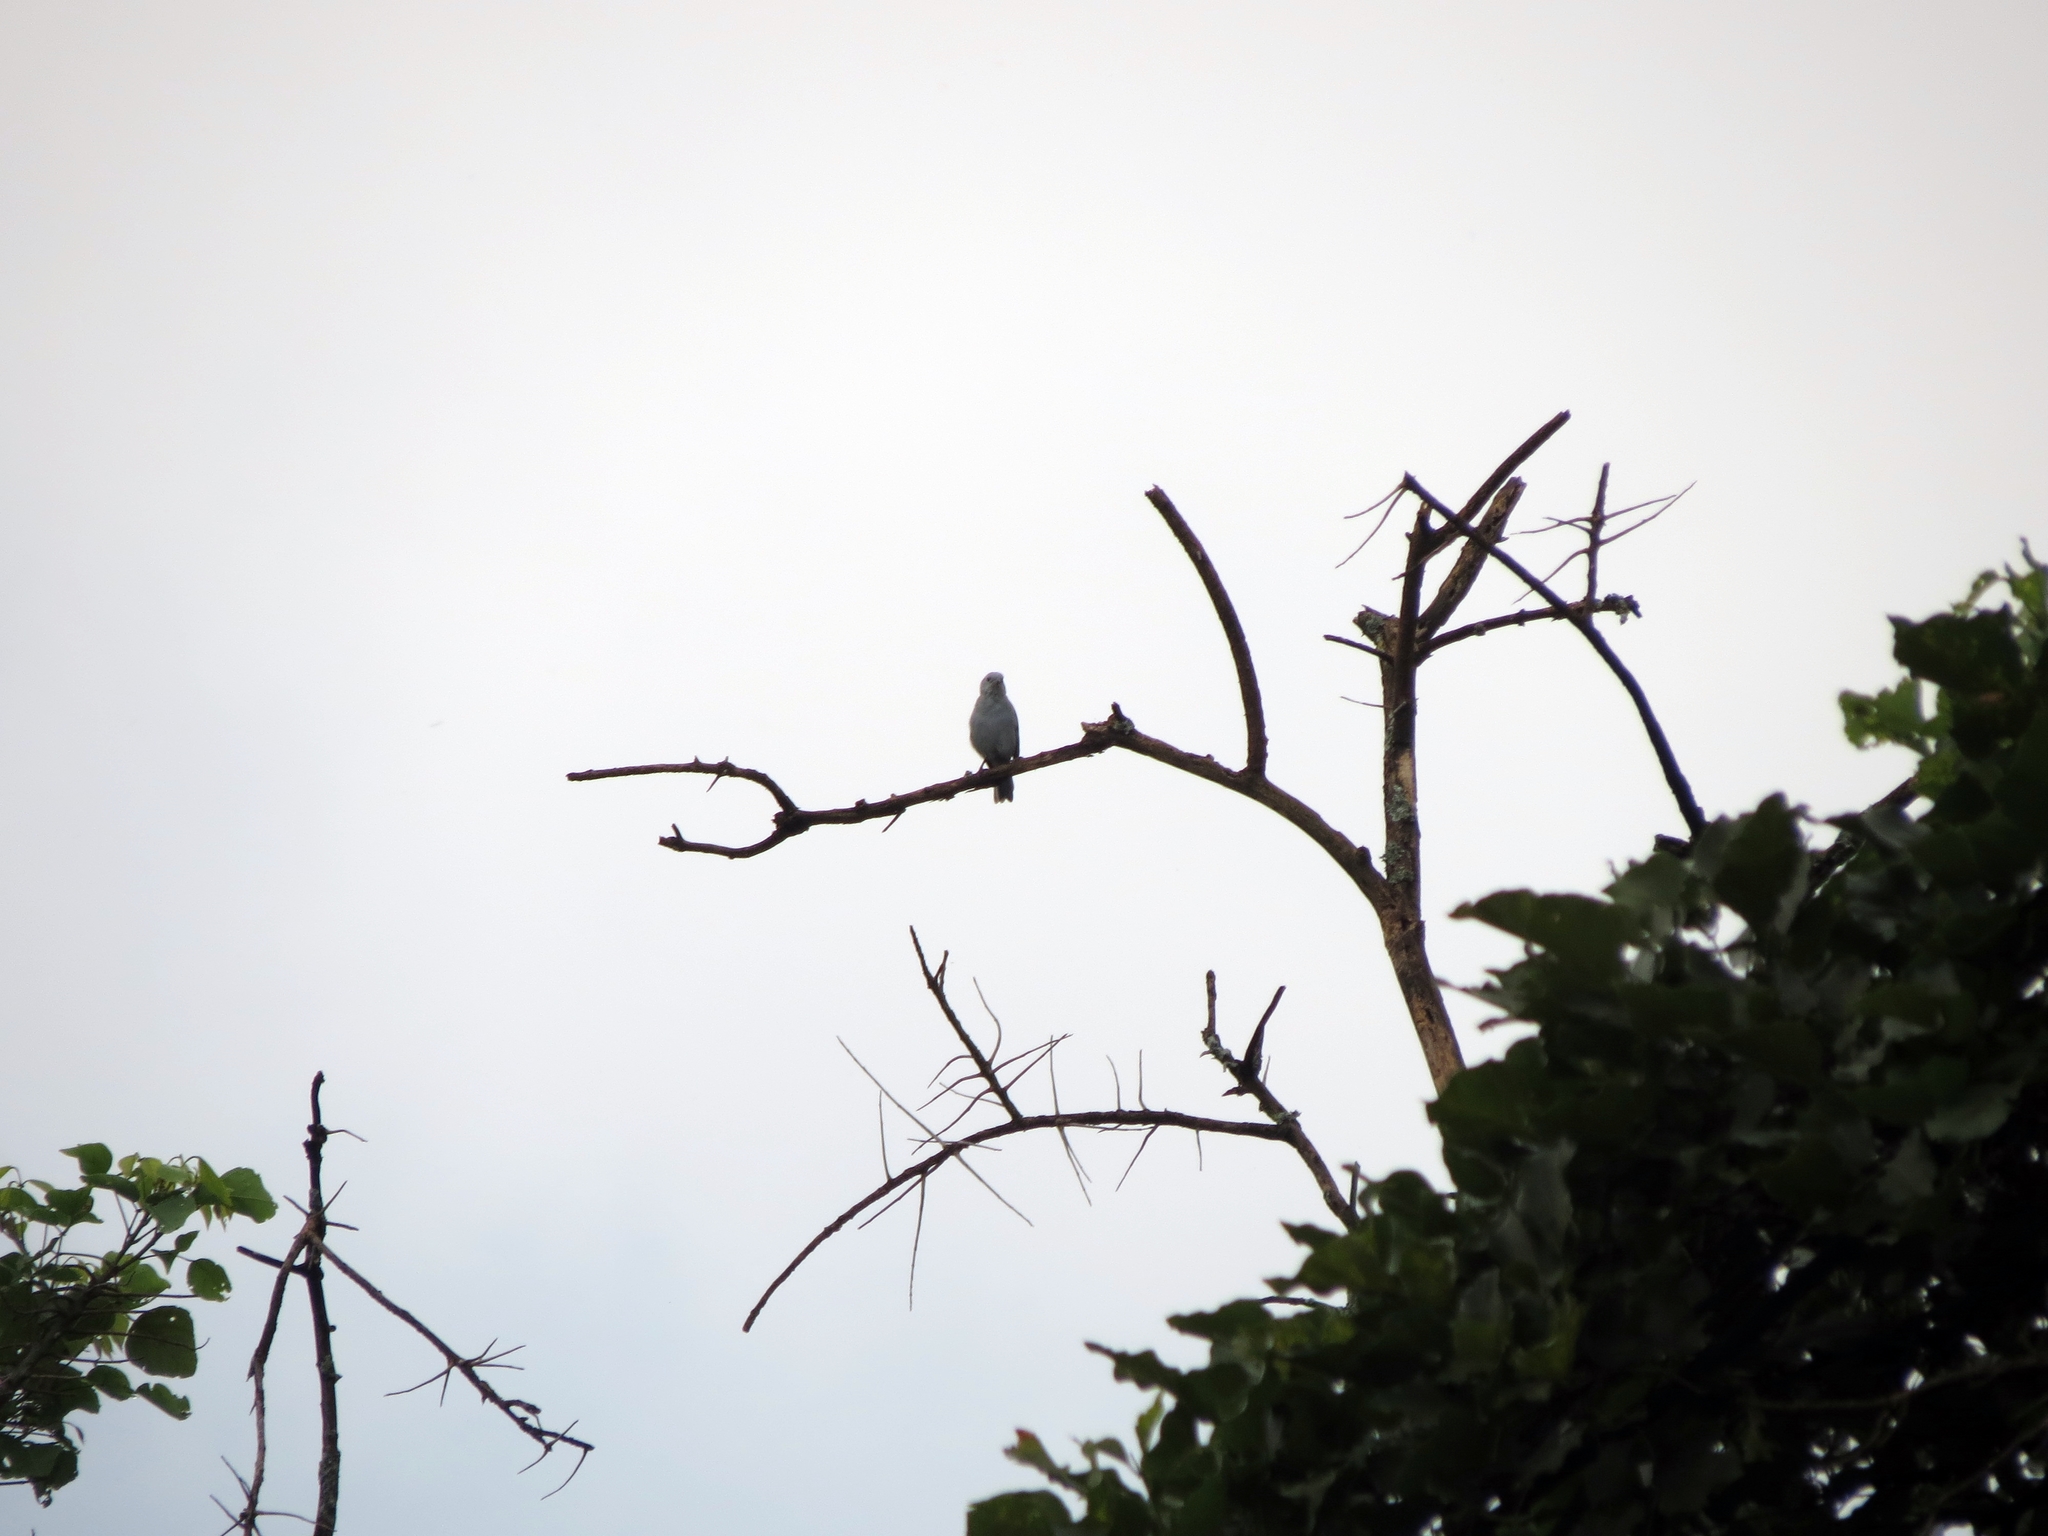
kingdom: Animalia
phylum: Chordata
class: Aves
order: Passeriformes
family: Thraupidae
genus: Thraupis
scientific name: Thraupis episcopus
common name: Blue-grey tanager
